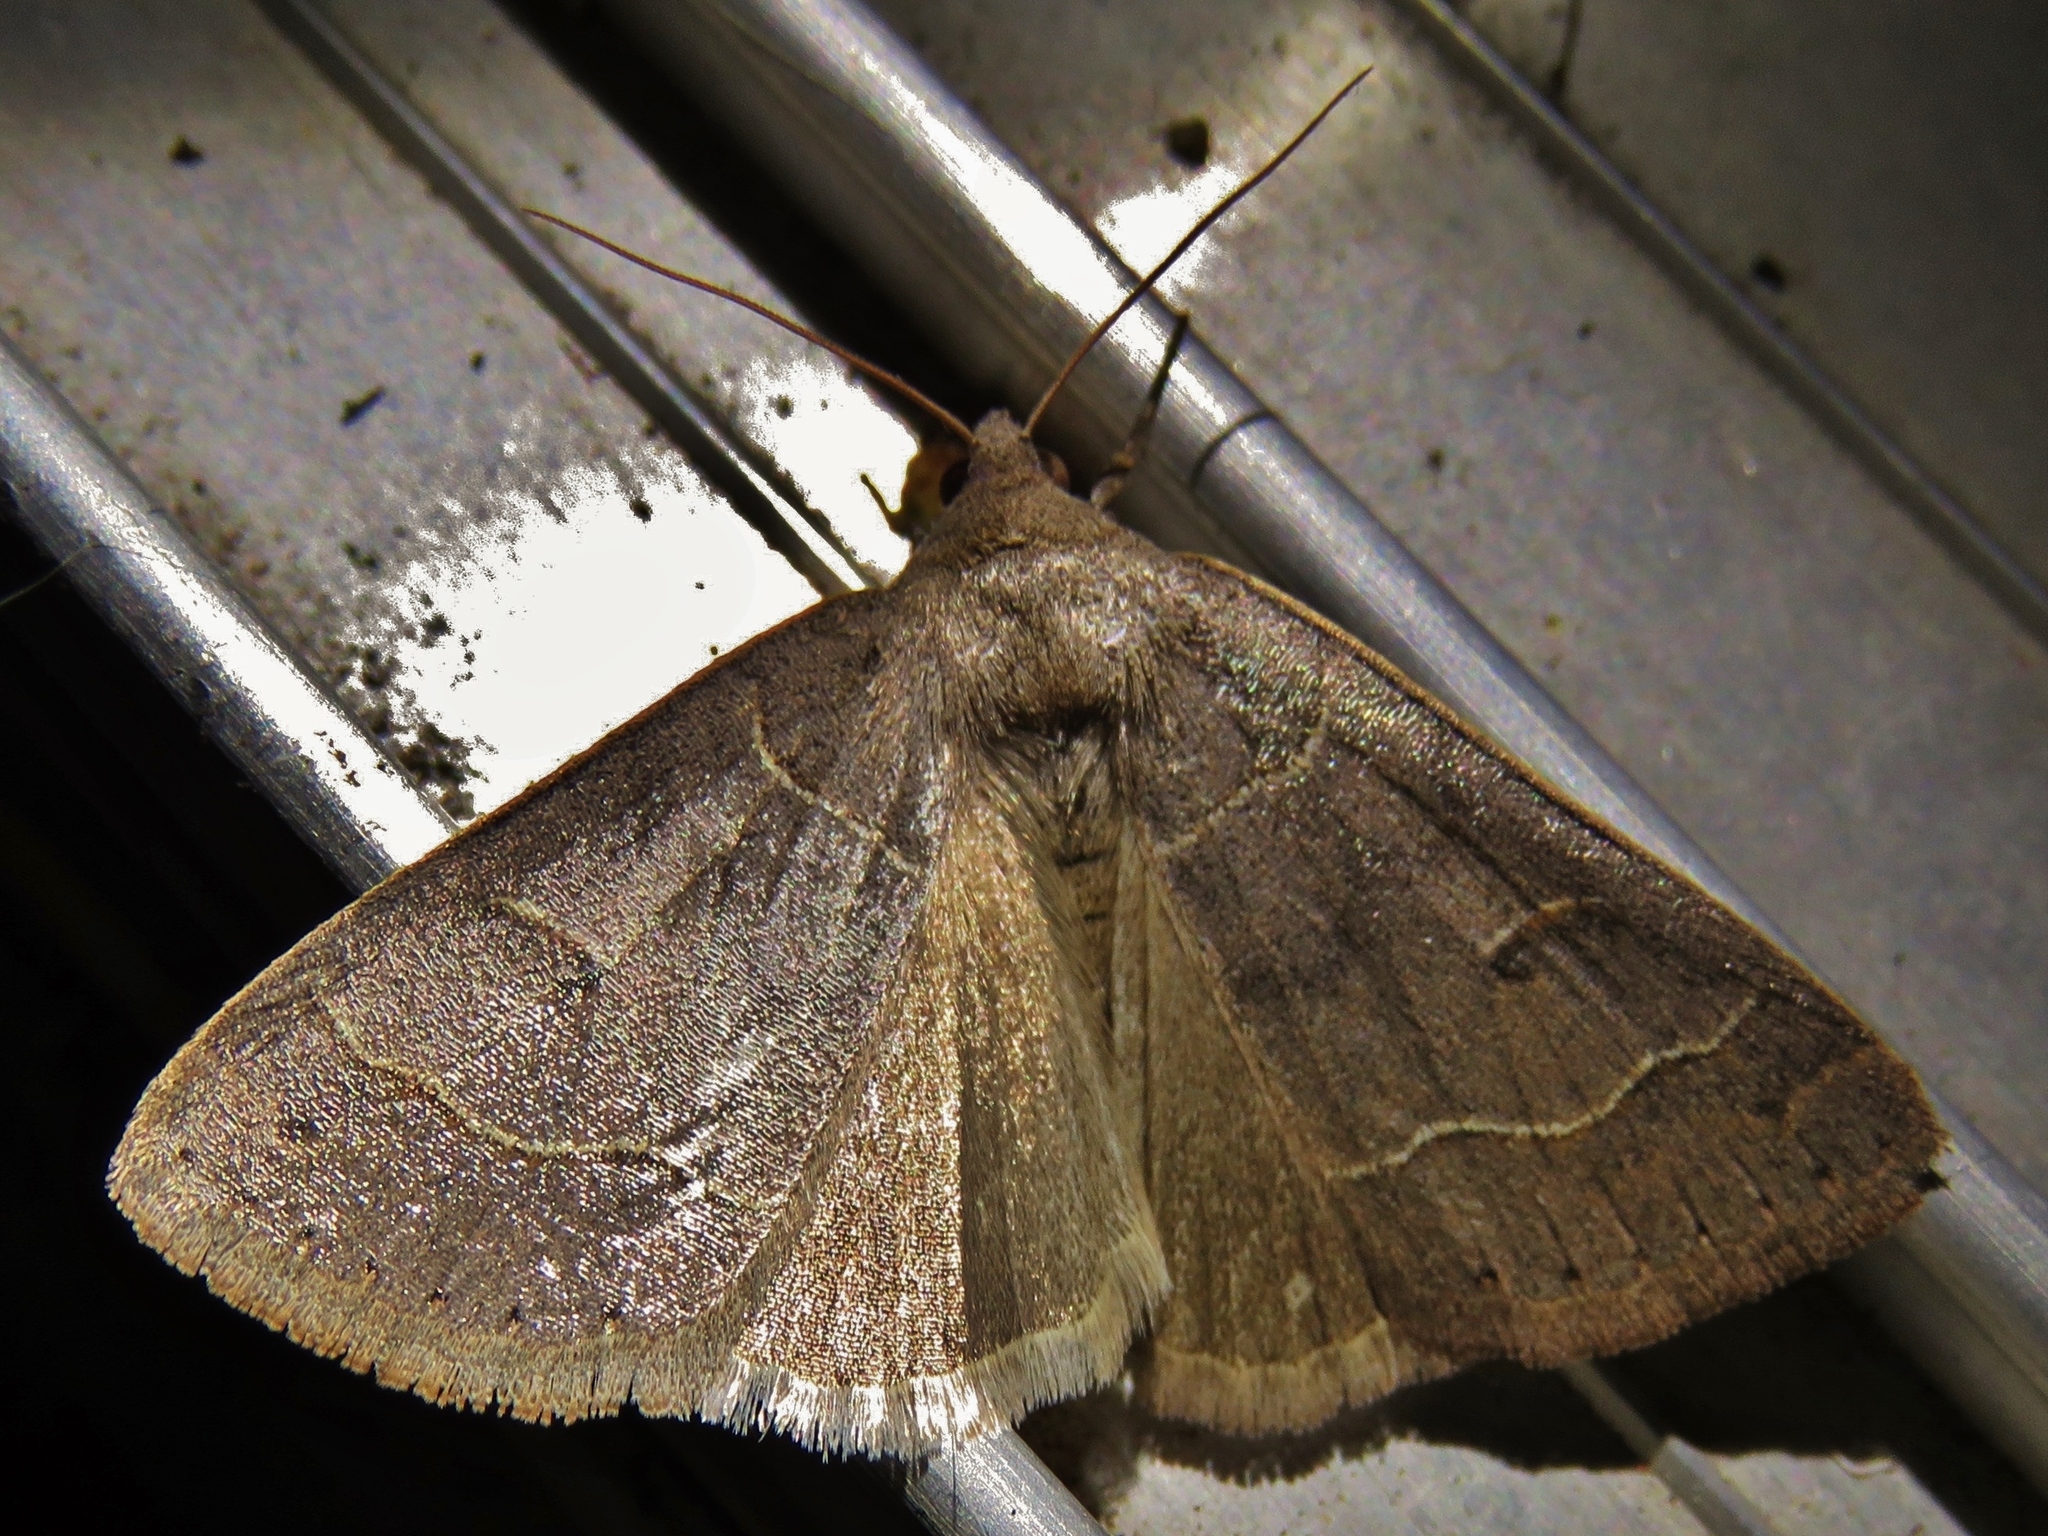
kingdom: Animalia
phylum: Arthropoda
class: Insecta
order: Lepidoptera
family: Erebidae
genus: Phoberia
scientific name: Phoberia atomaris
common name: Common oak moth
